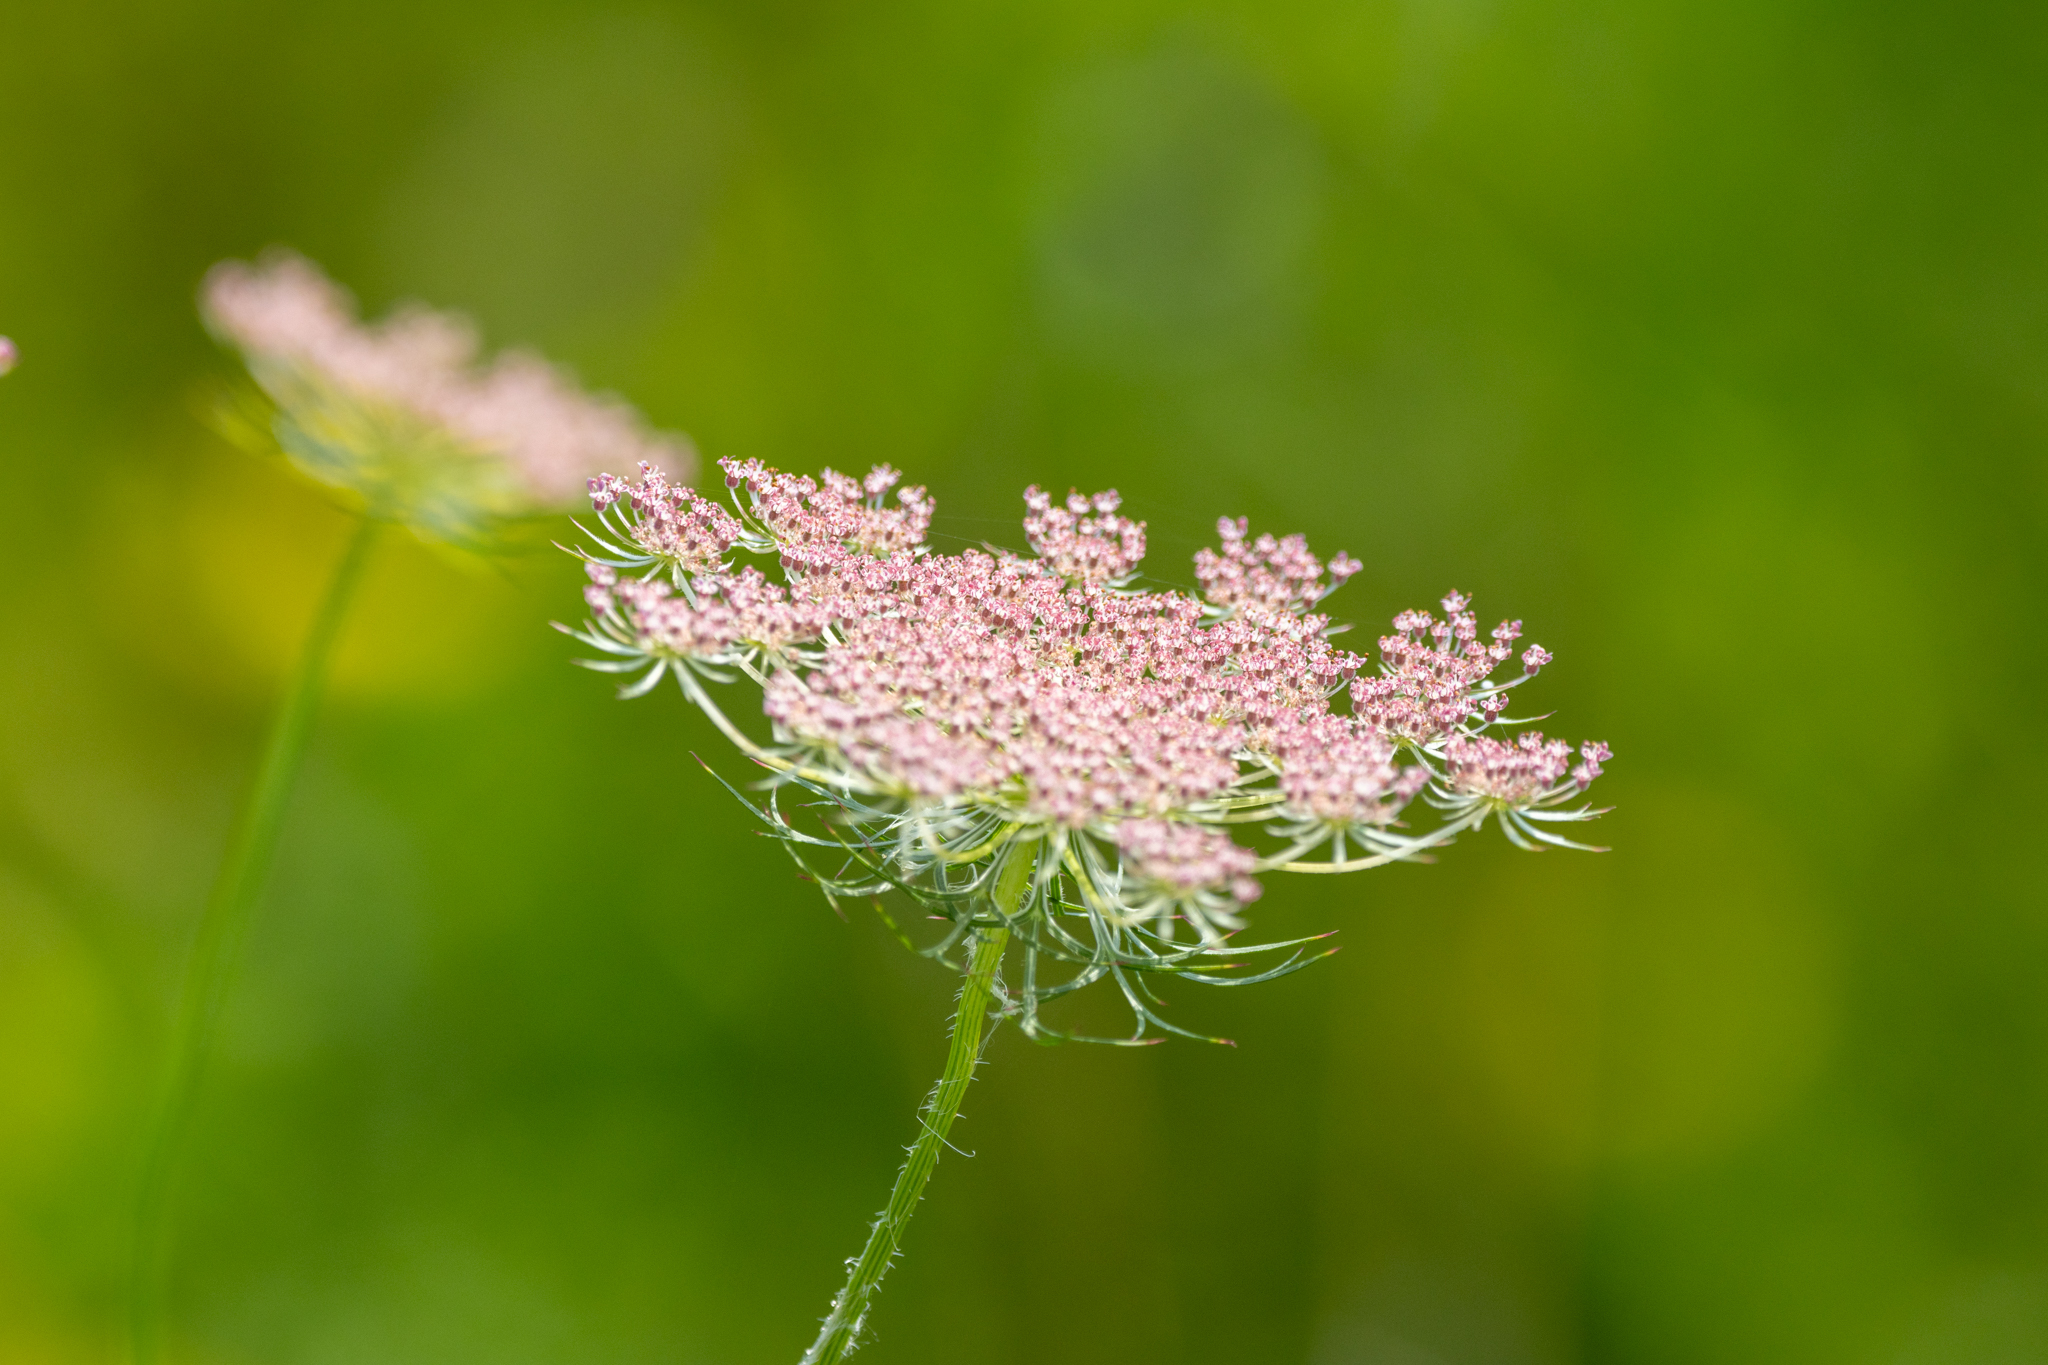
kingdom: Plantae
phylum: Tracheophyta
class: Magnoliopsida
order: Apiales
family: Apiaceae
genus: Daucus
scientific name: Daucus carota
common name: Wild carrot
